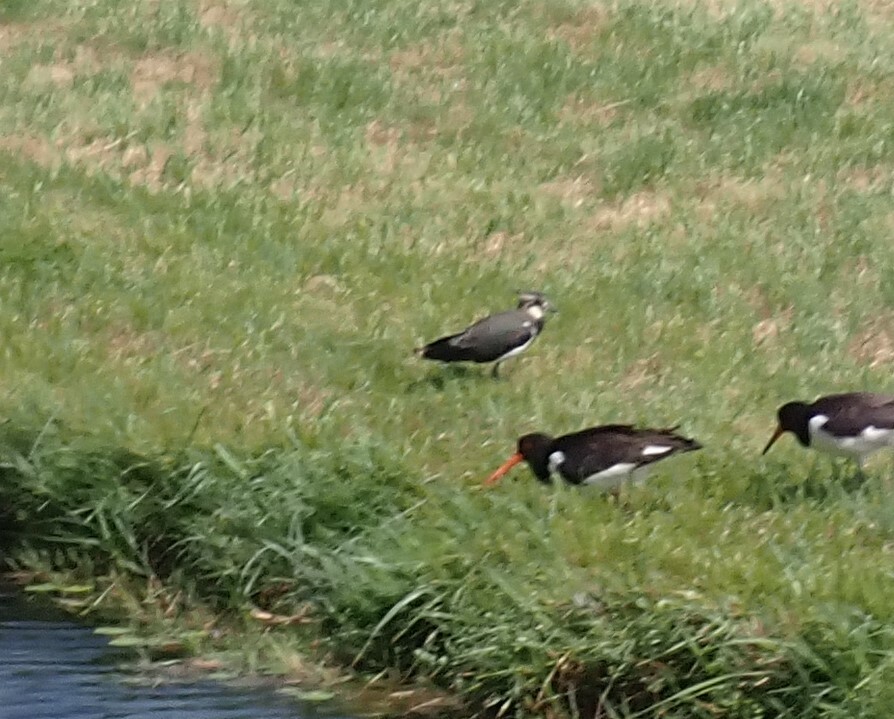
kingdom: Animalia
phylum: Chordata
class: Aves
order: Charadriiformes
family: Charadriidae
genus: Vanellus
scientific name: Vanellus vanellus
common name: Northern lapwing
